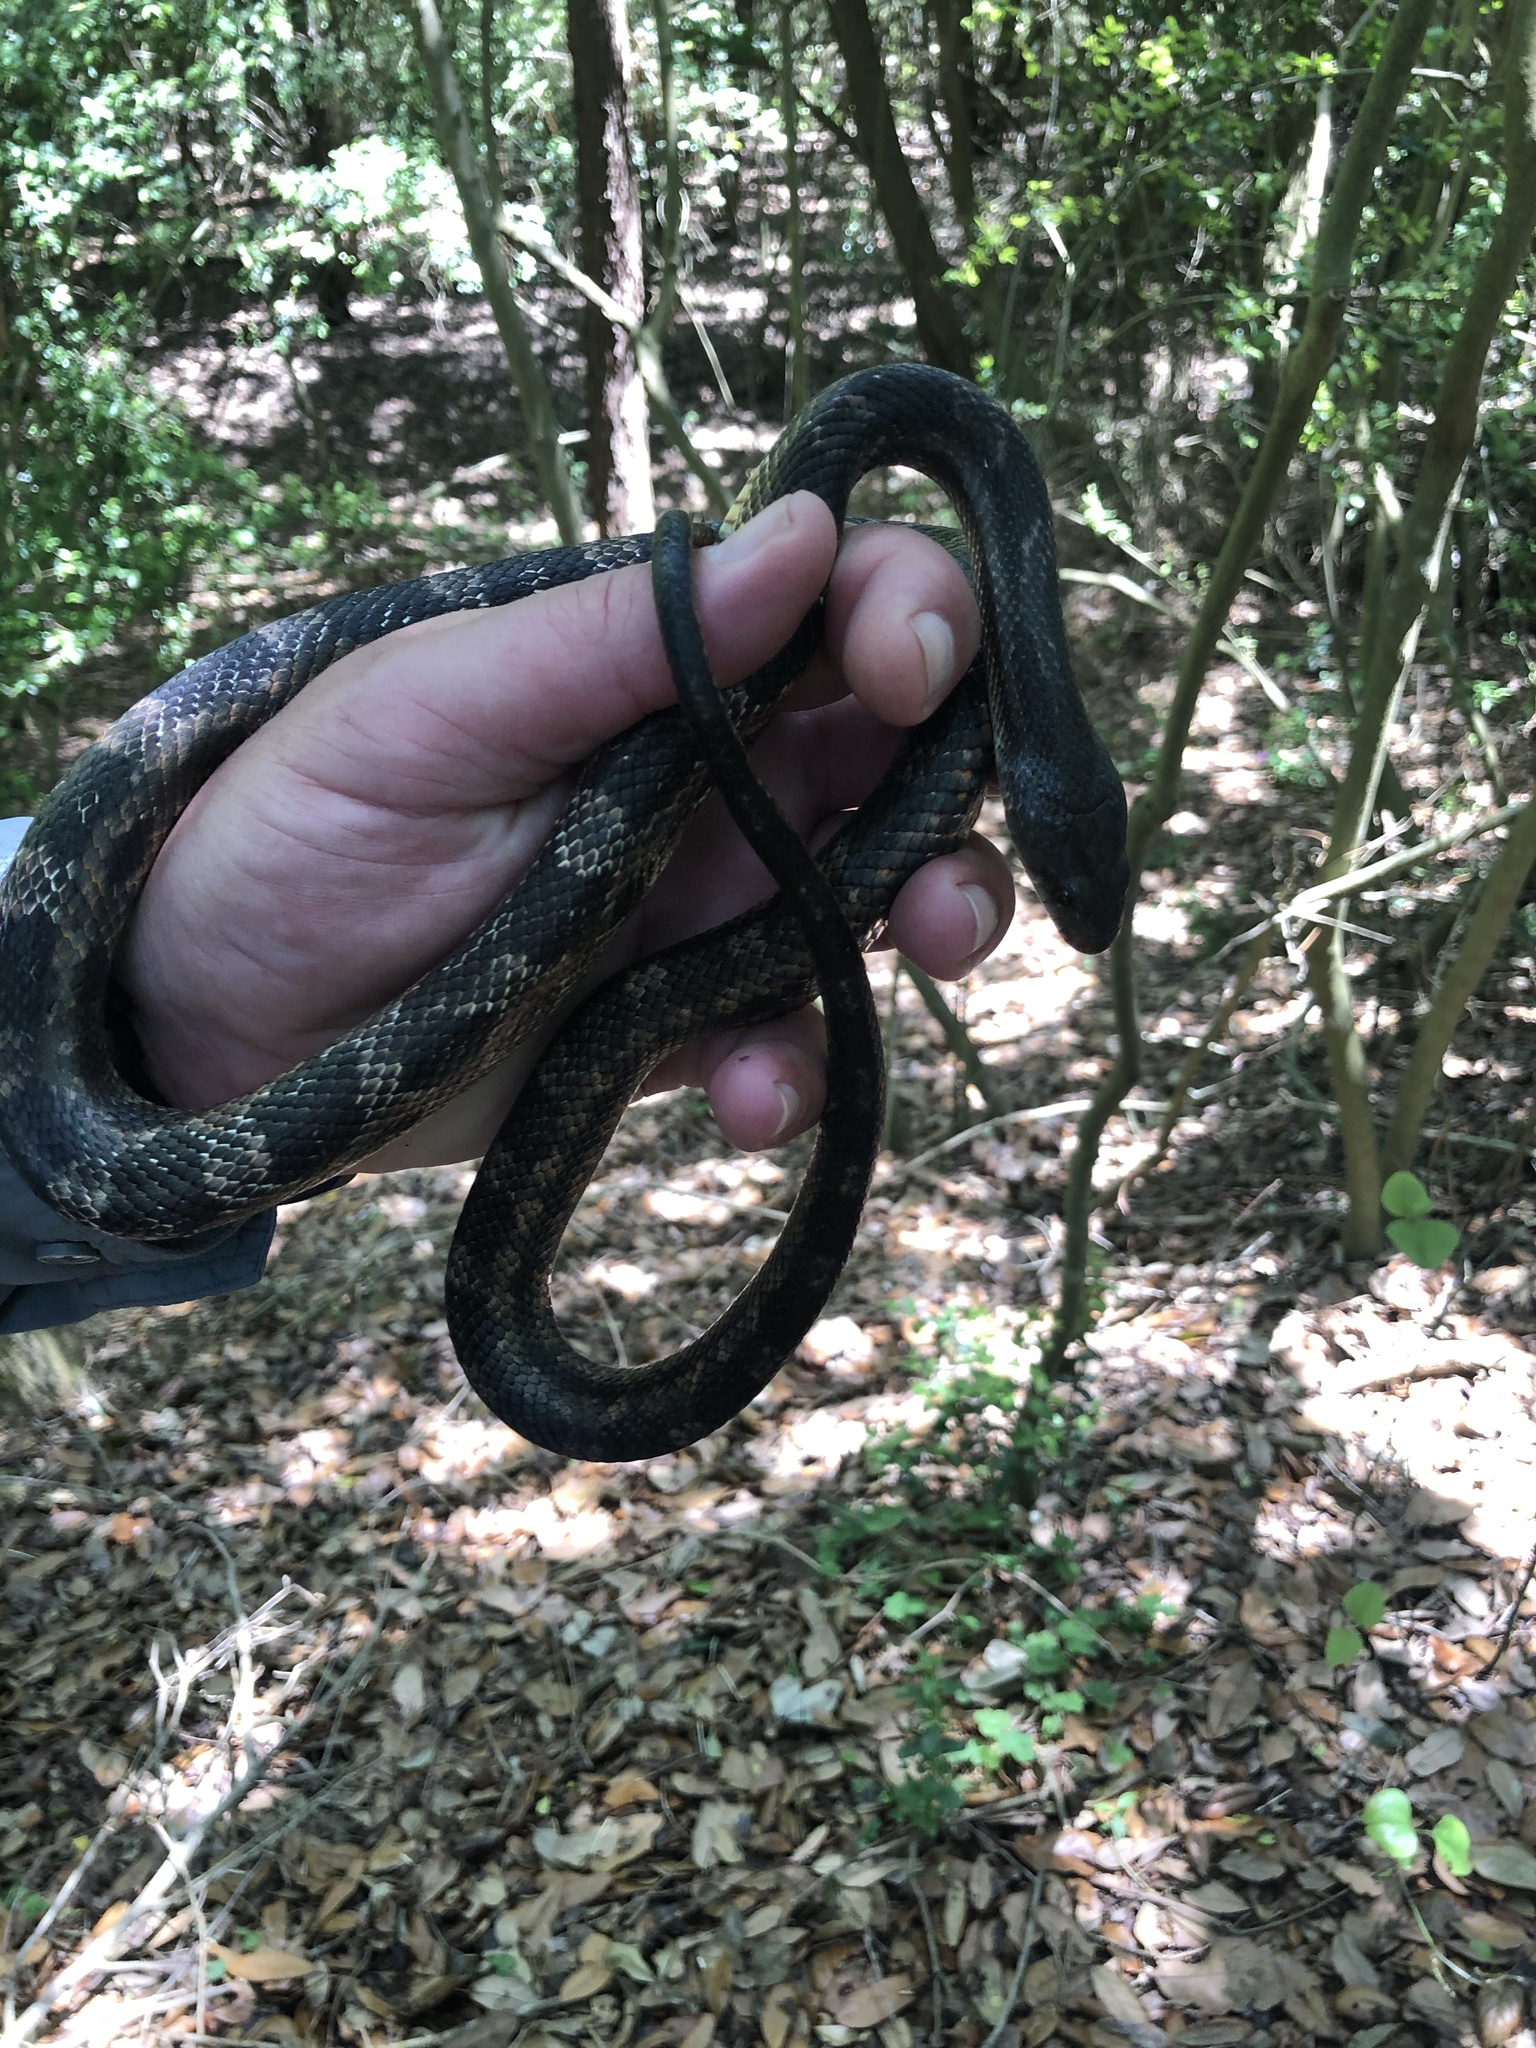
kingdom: Animalia
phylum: Chordata
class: Squamata
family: Colubridae
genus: Pantherophis
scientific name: Pantherophis obsoletus
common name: Black rat snake
